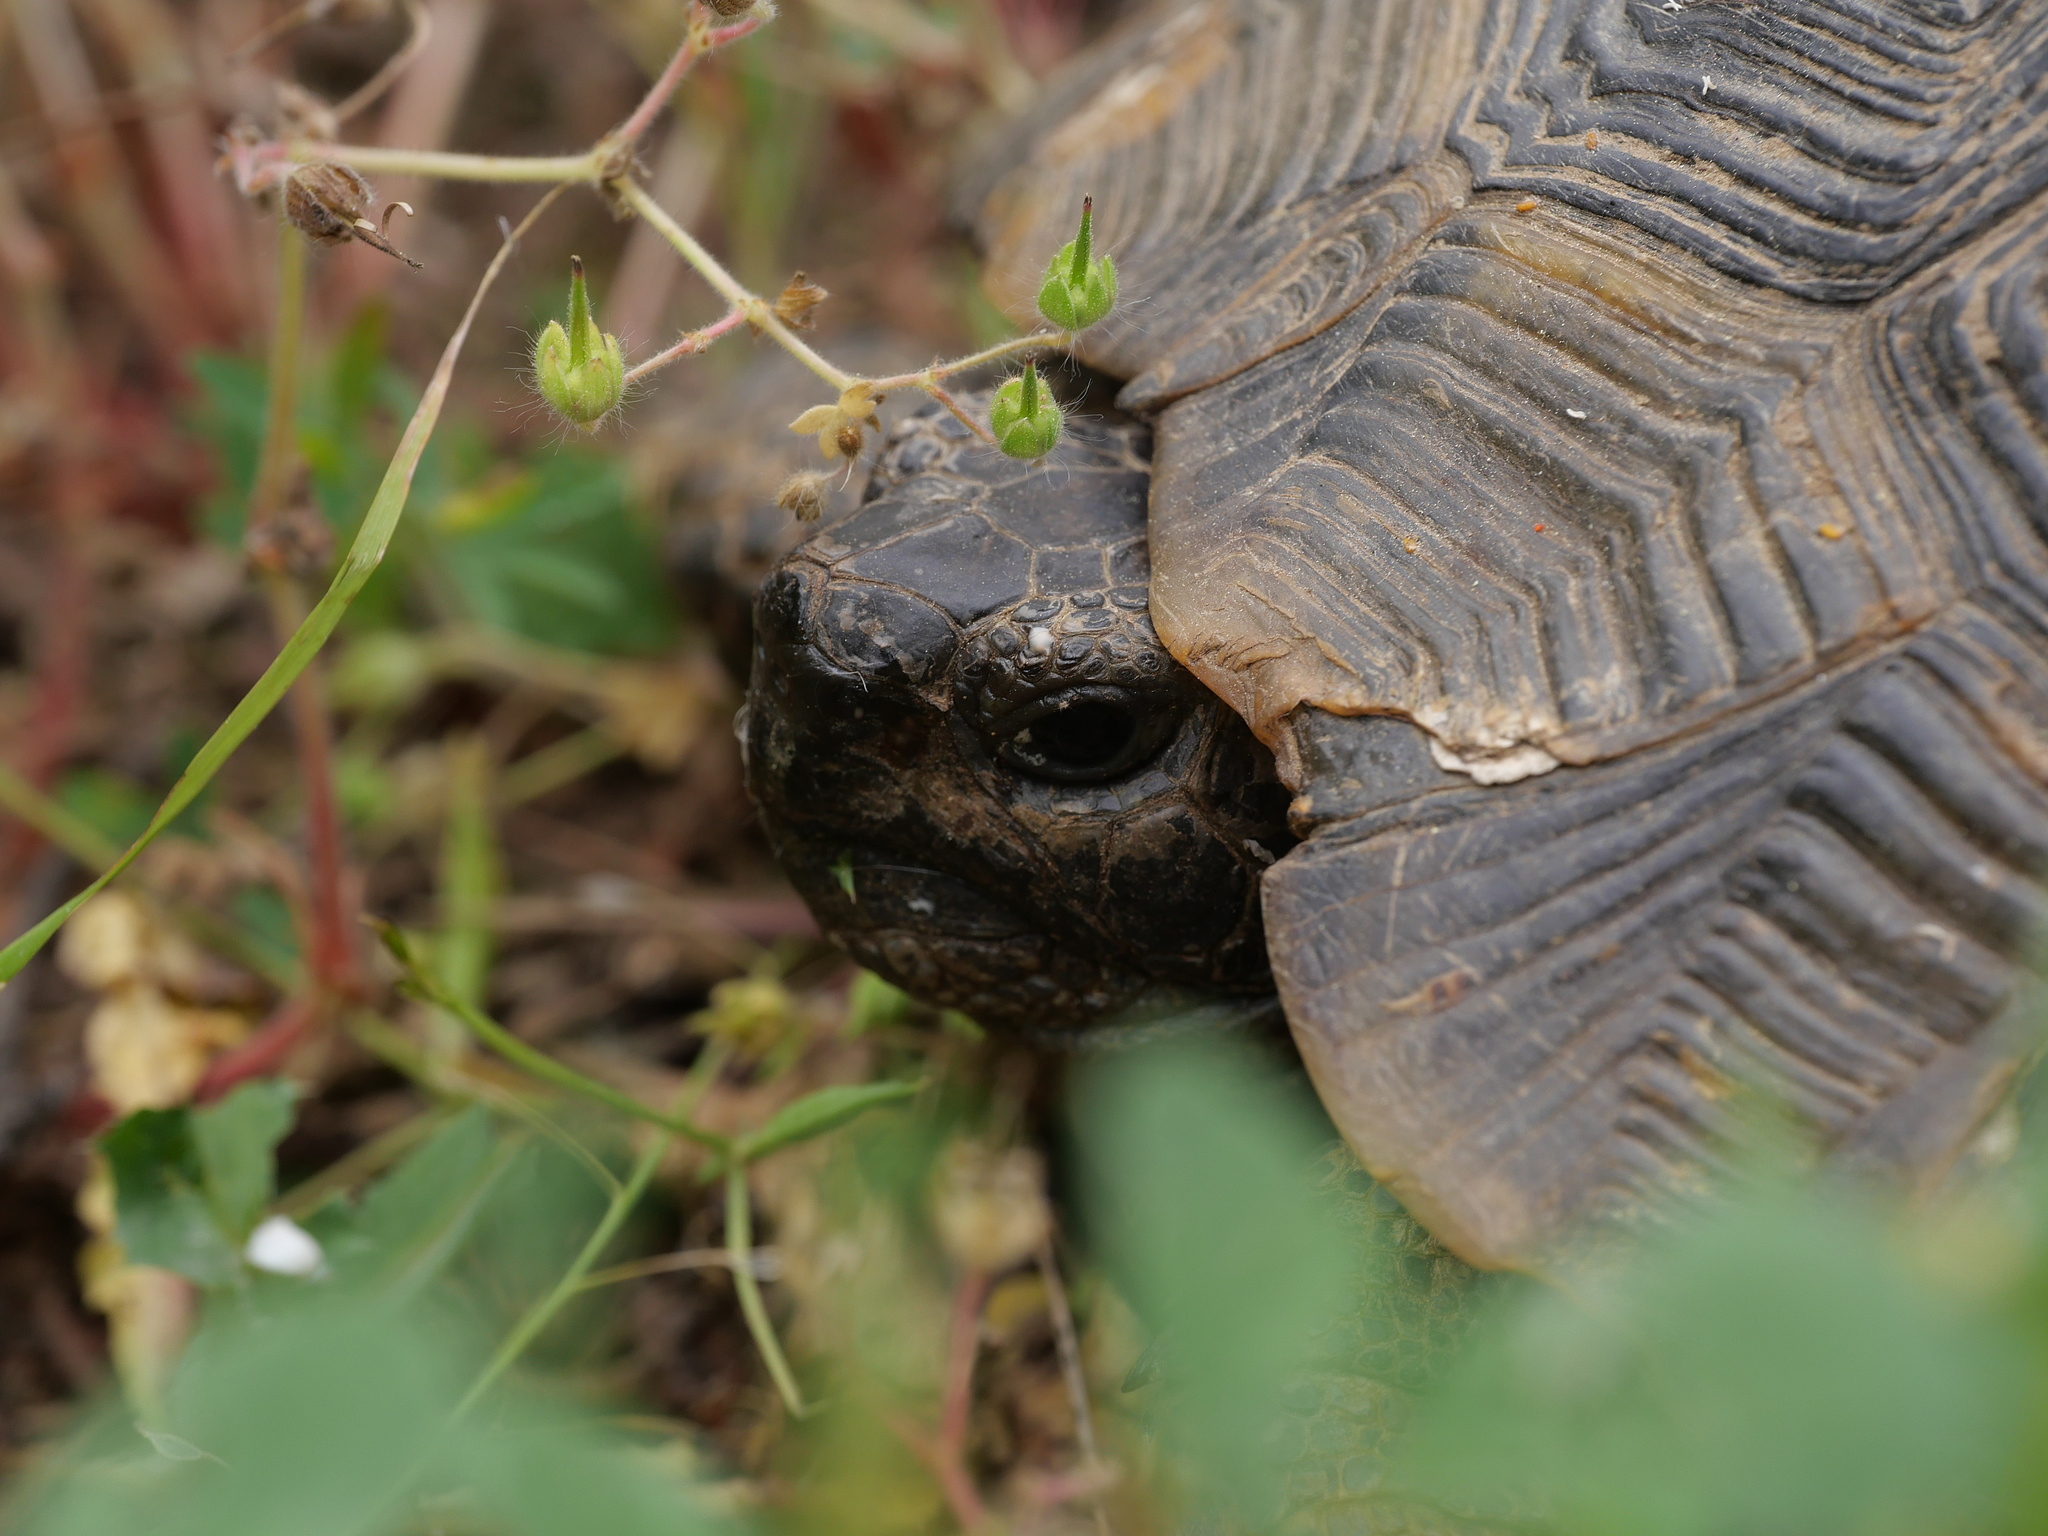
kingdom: Animalia
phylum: Chordata
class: Testudines
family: Testudinidae
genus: Testudo
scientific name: Testudo graeca
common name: Common tortoise
